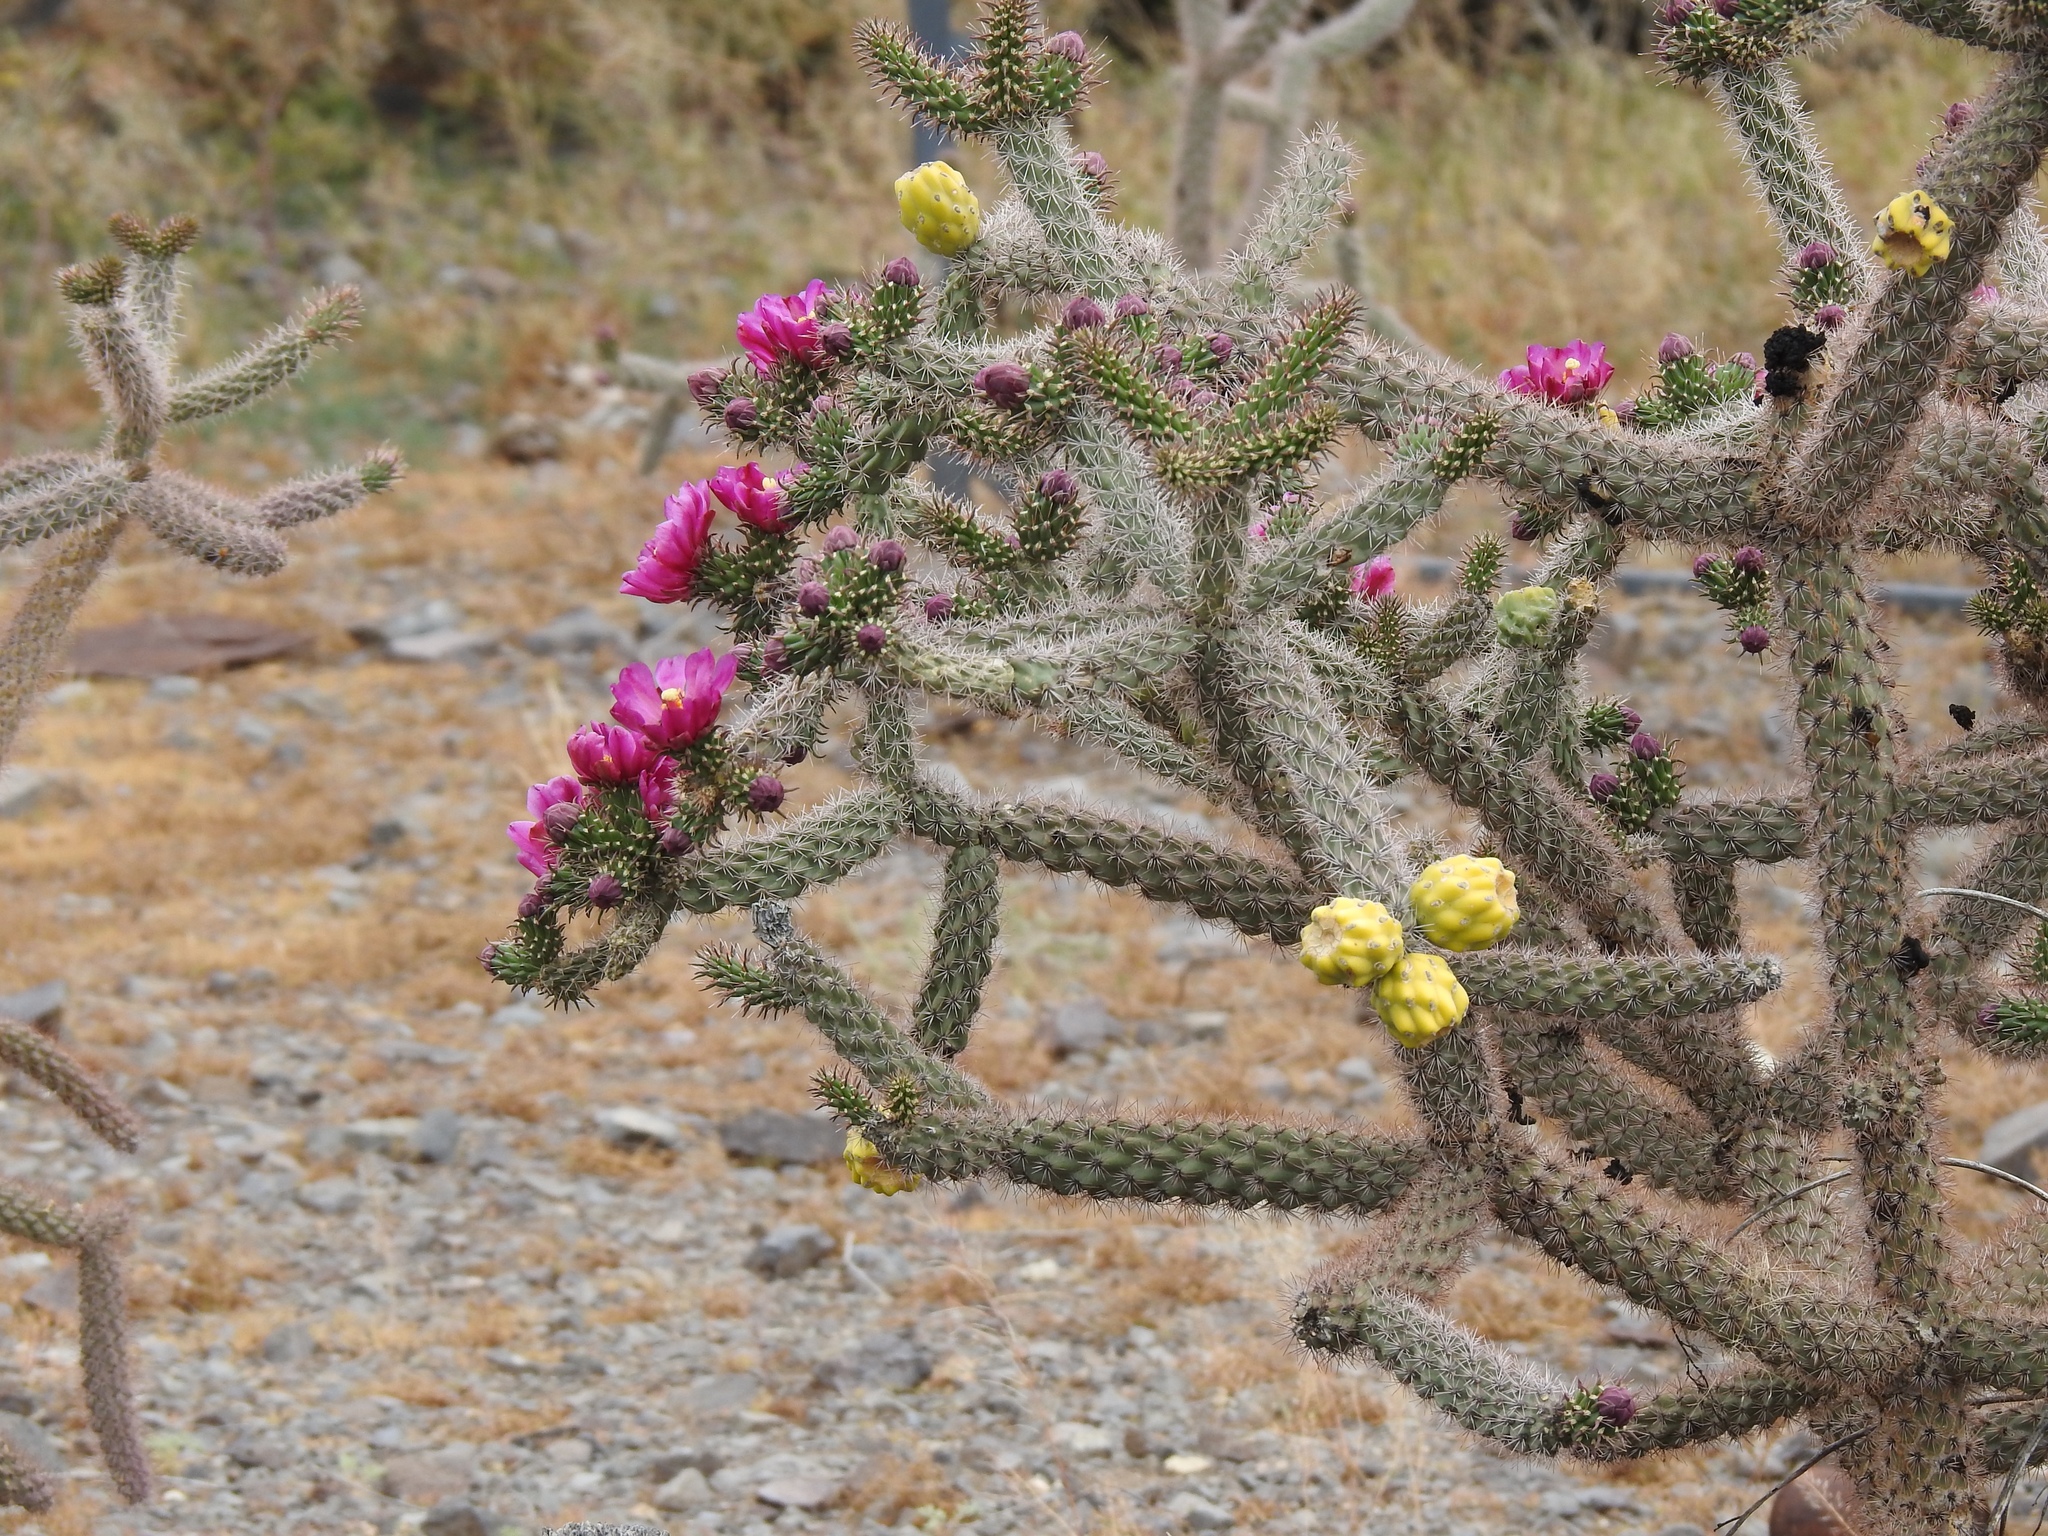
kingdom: Plantae
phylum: Tracheophyta
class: Magnoliopsida
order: Caryophyllales
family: Cactaceae
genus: Cylindropuntia
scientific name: Cylindropuntia imbricata
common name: Candelabrum cactus
